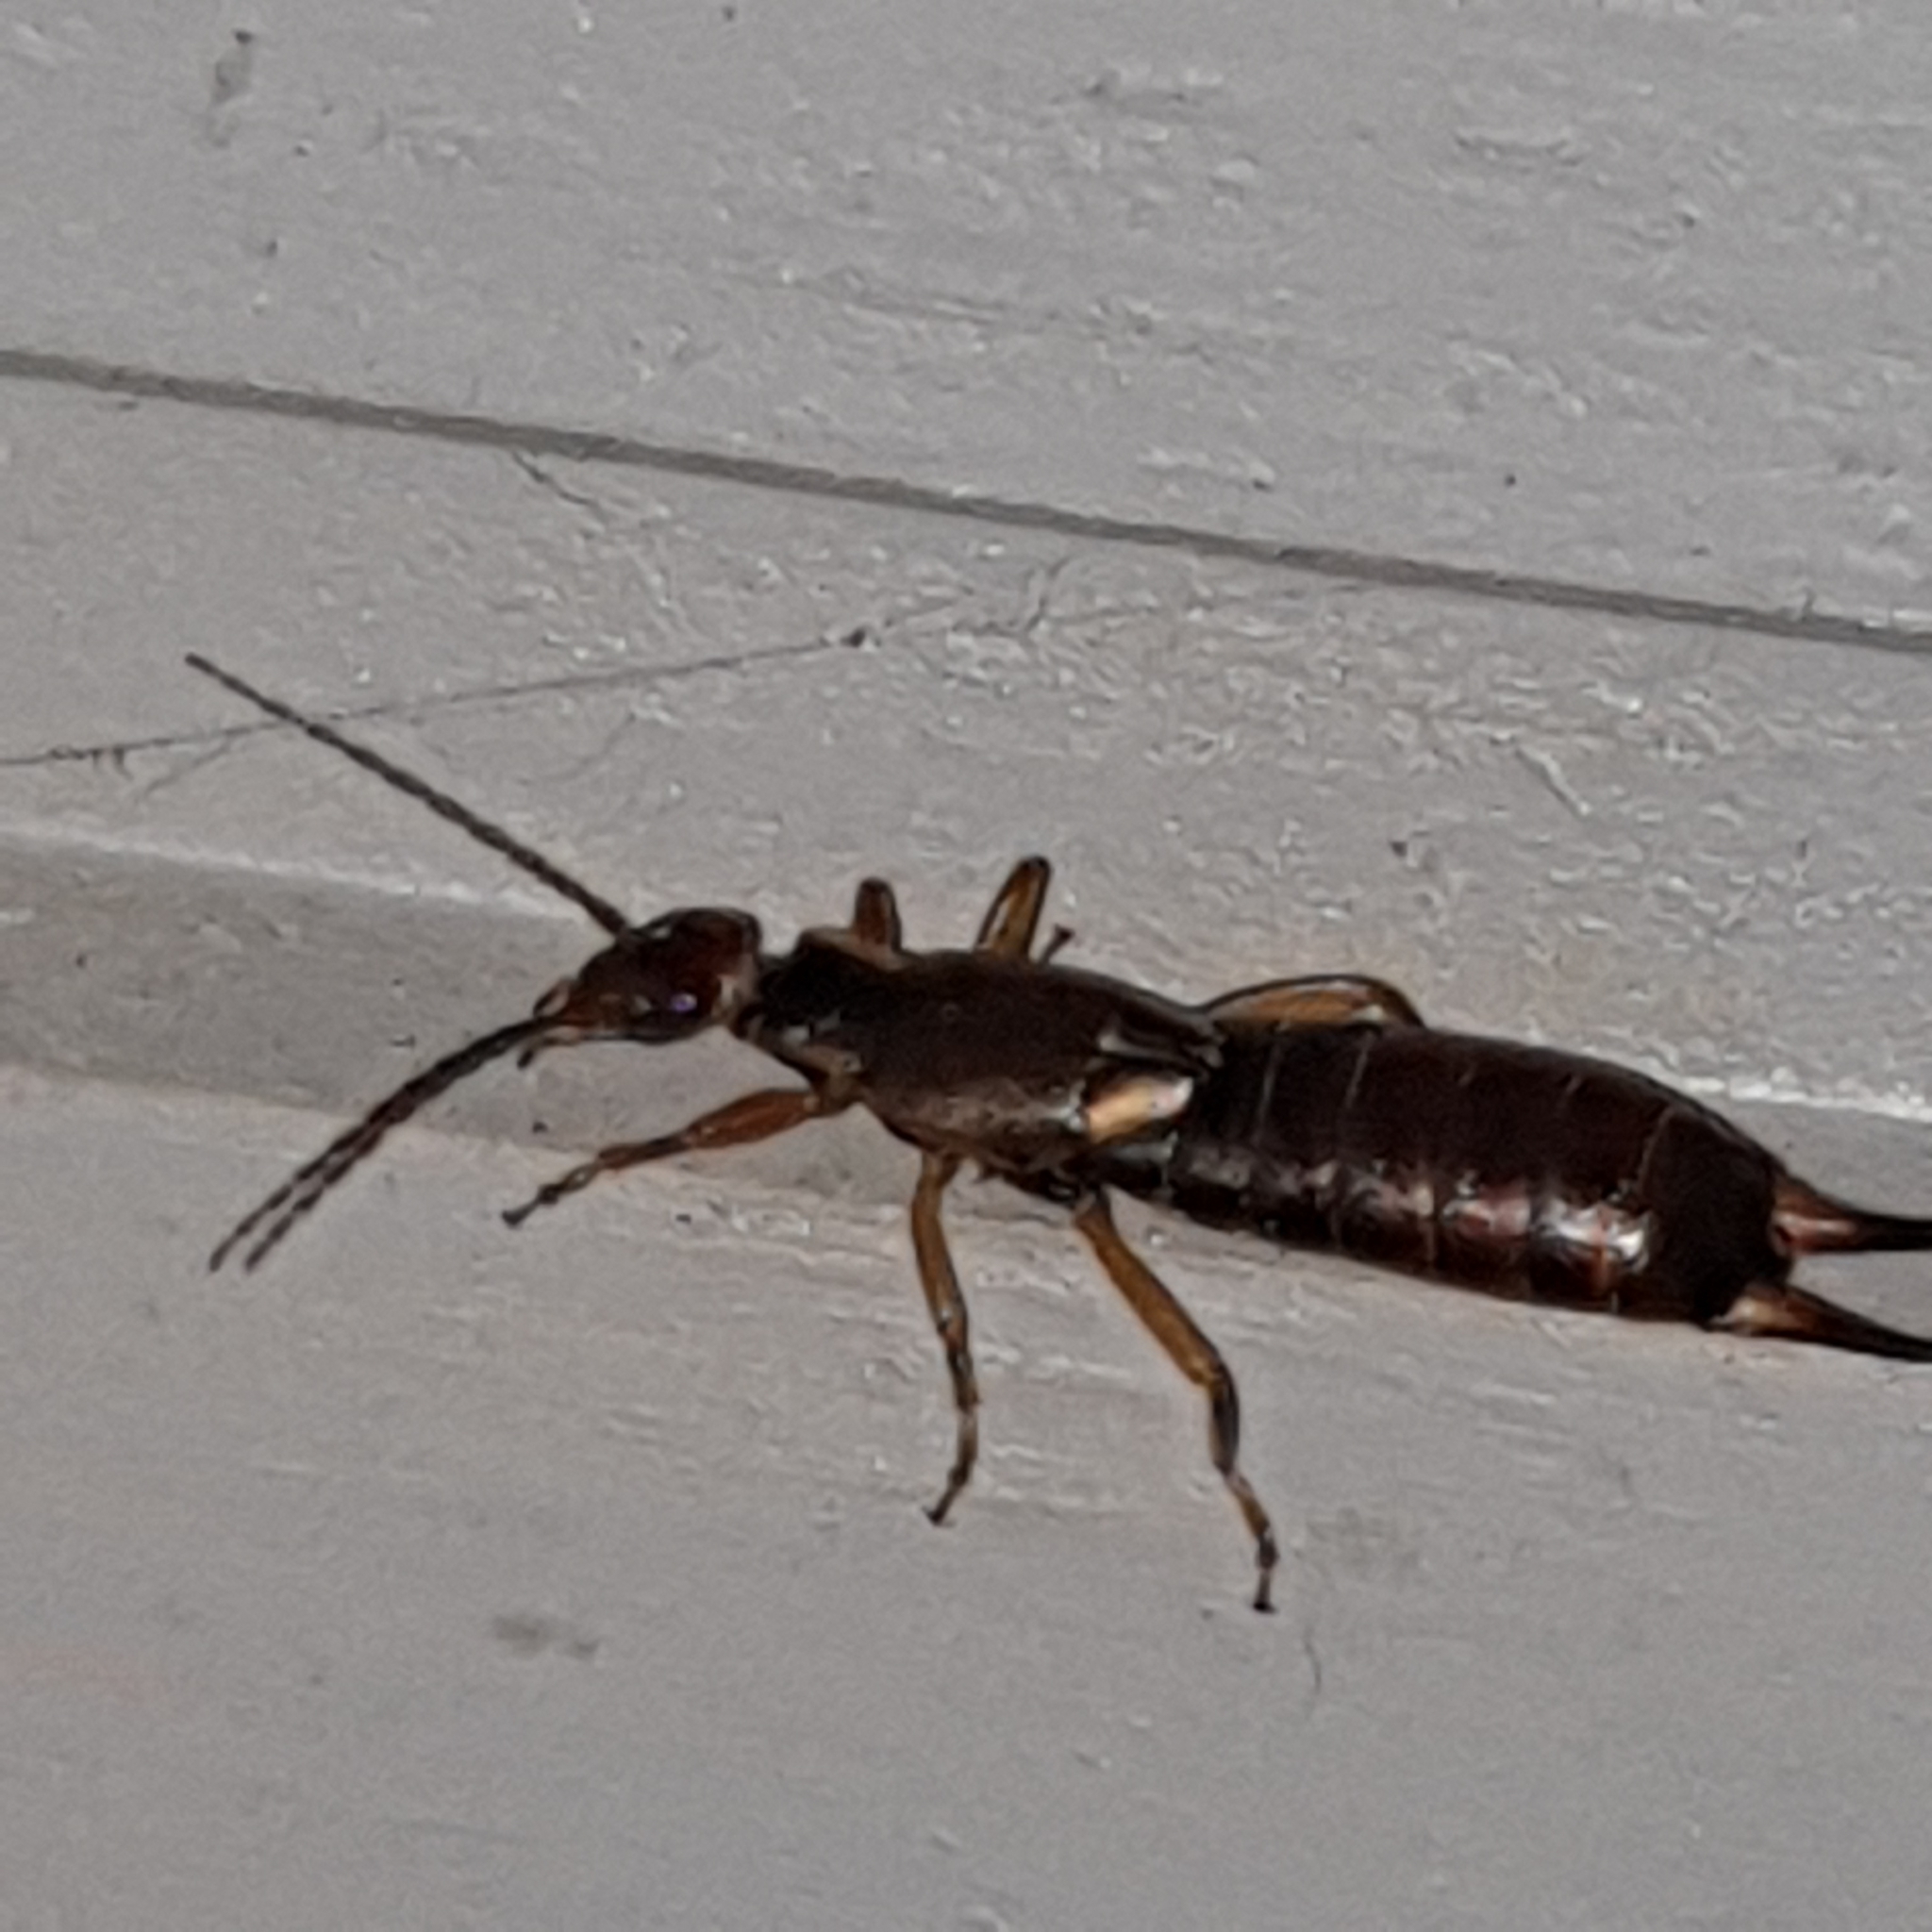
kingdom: Animalia
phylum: Arthropoda
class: Insecta
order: Dermaptera
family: Forficulidae
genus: Forficula
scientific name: Forficula
